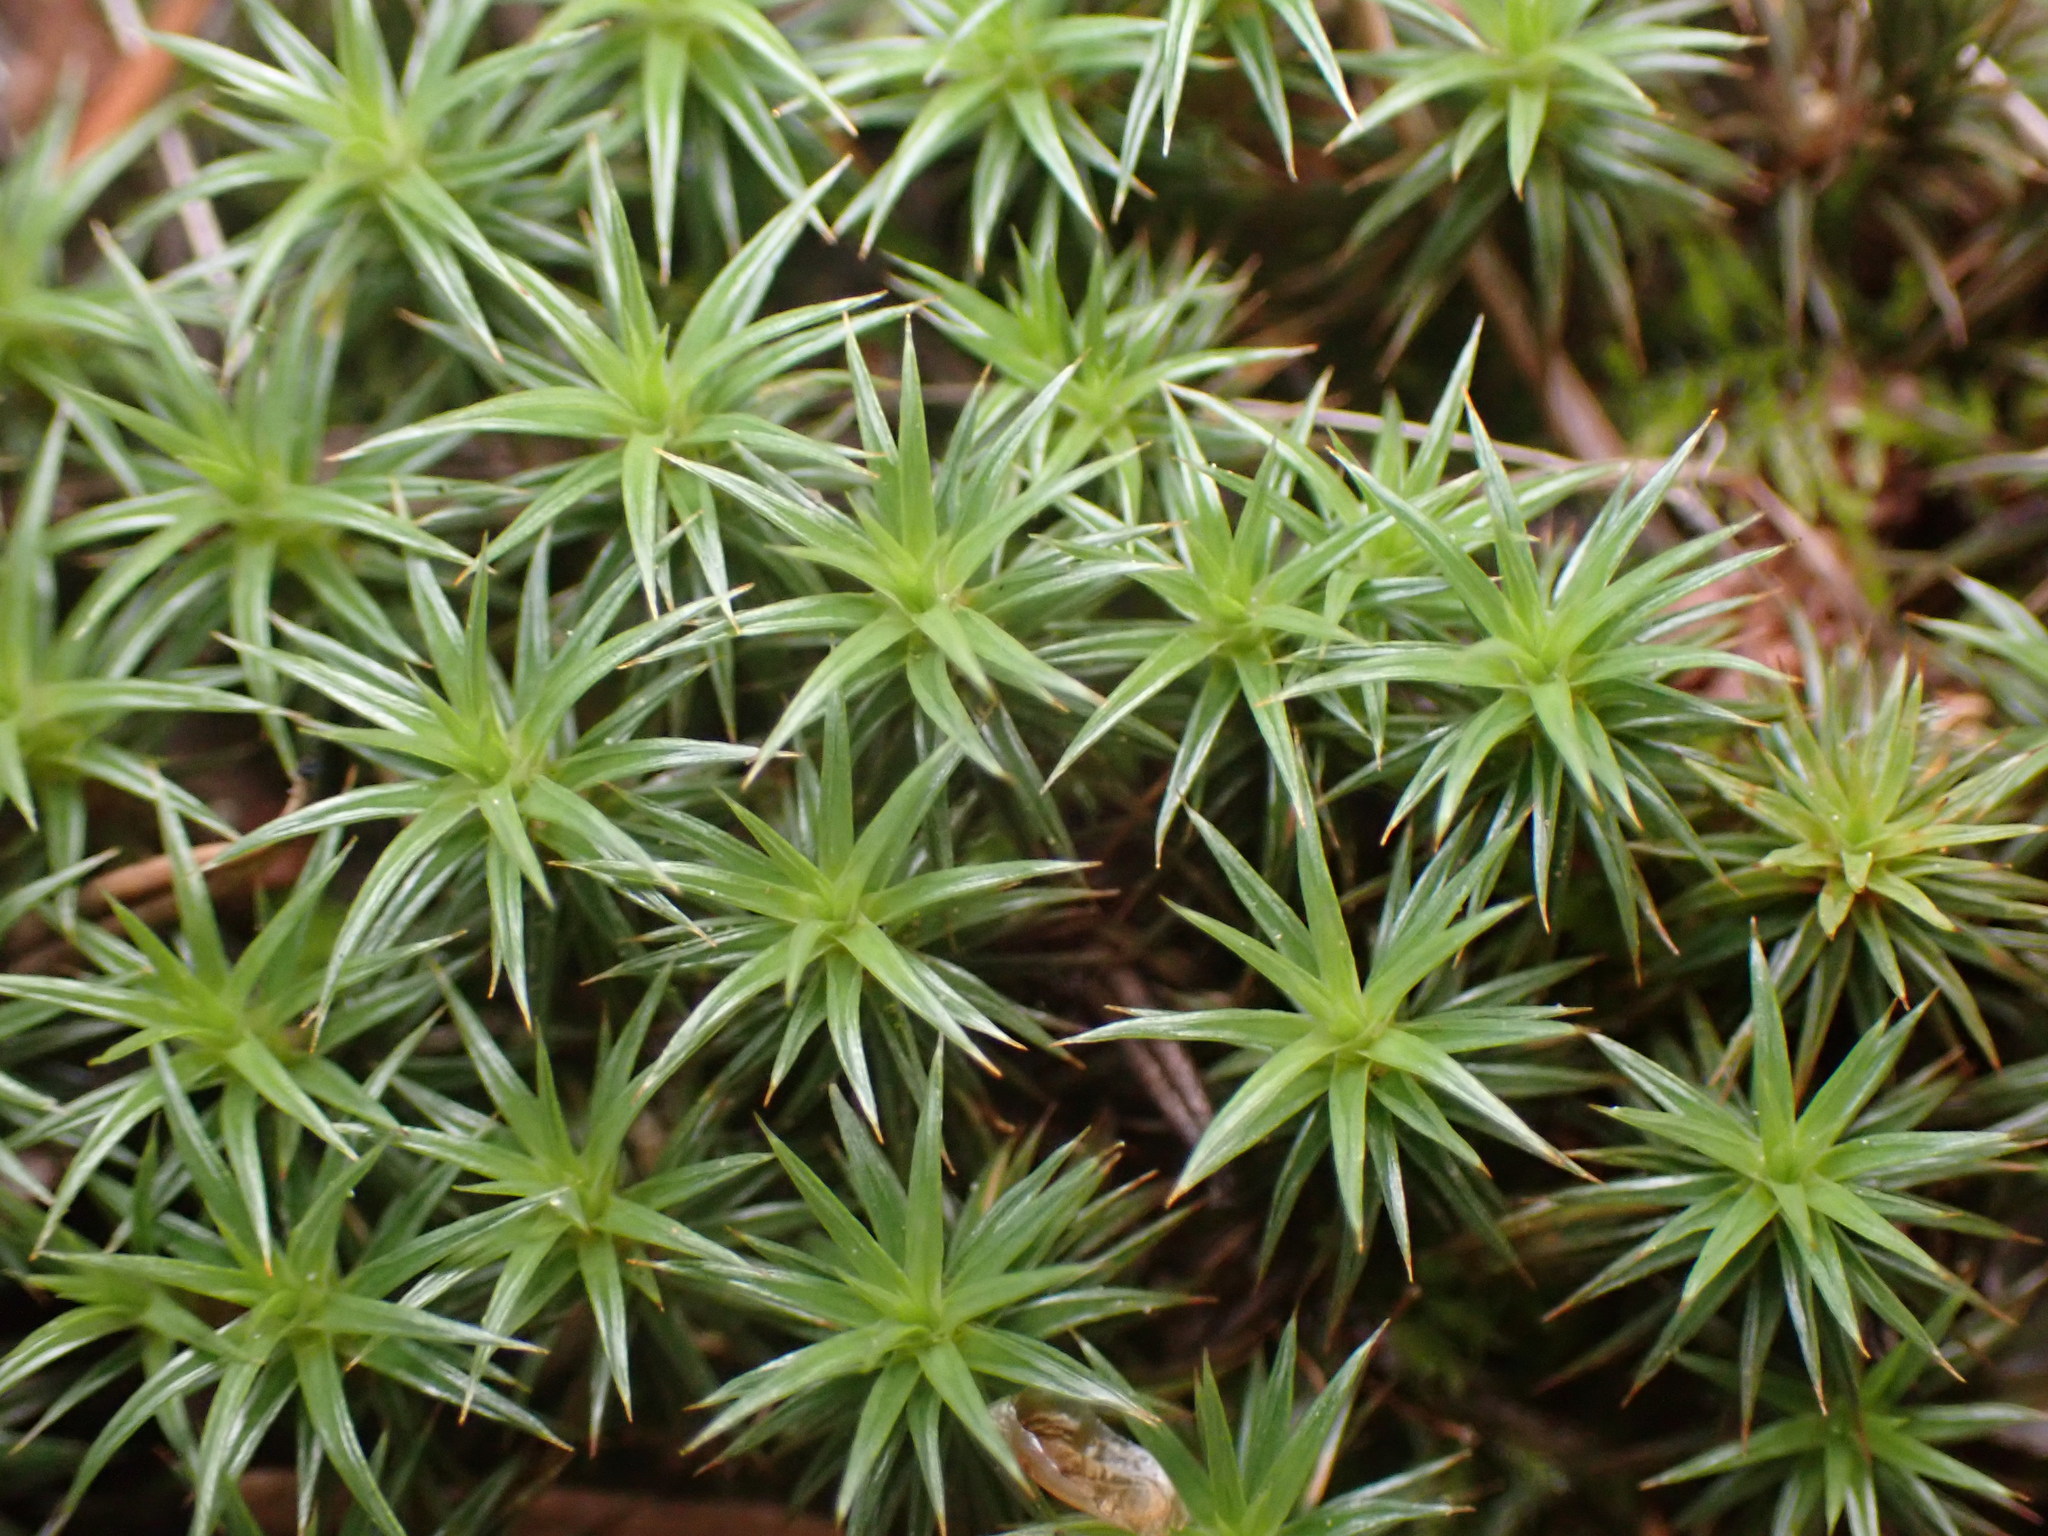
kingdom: Plantae
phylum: Bryophyta
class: Polytrichopsida
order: Polytrichales
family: Polytrichaceae
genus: Polytrichum
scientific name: Polytrichum juniperinum
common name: Juniper haircap moss
